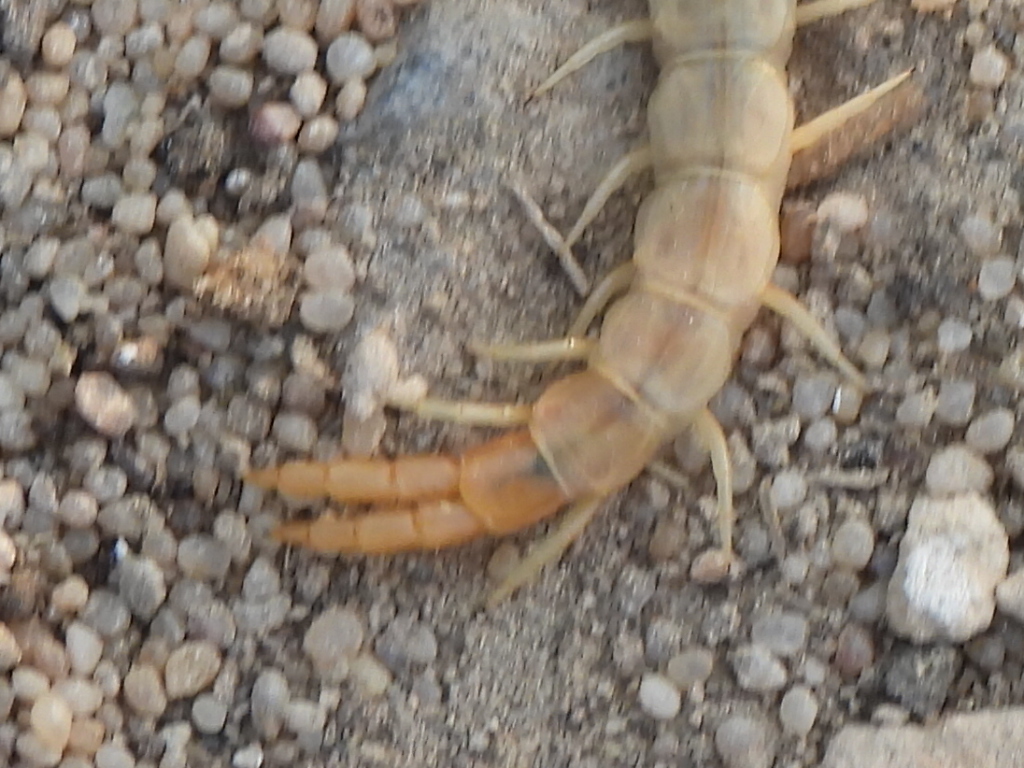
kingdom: Animalia
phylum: Arthropoda
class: Chilopoda
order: Scolopendromorpha
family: Scolopendridae
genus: Scolopendra
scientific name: Scolopendra canidens
